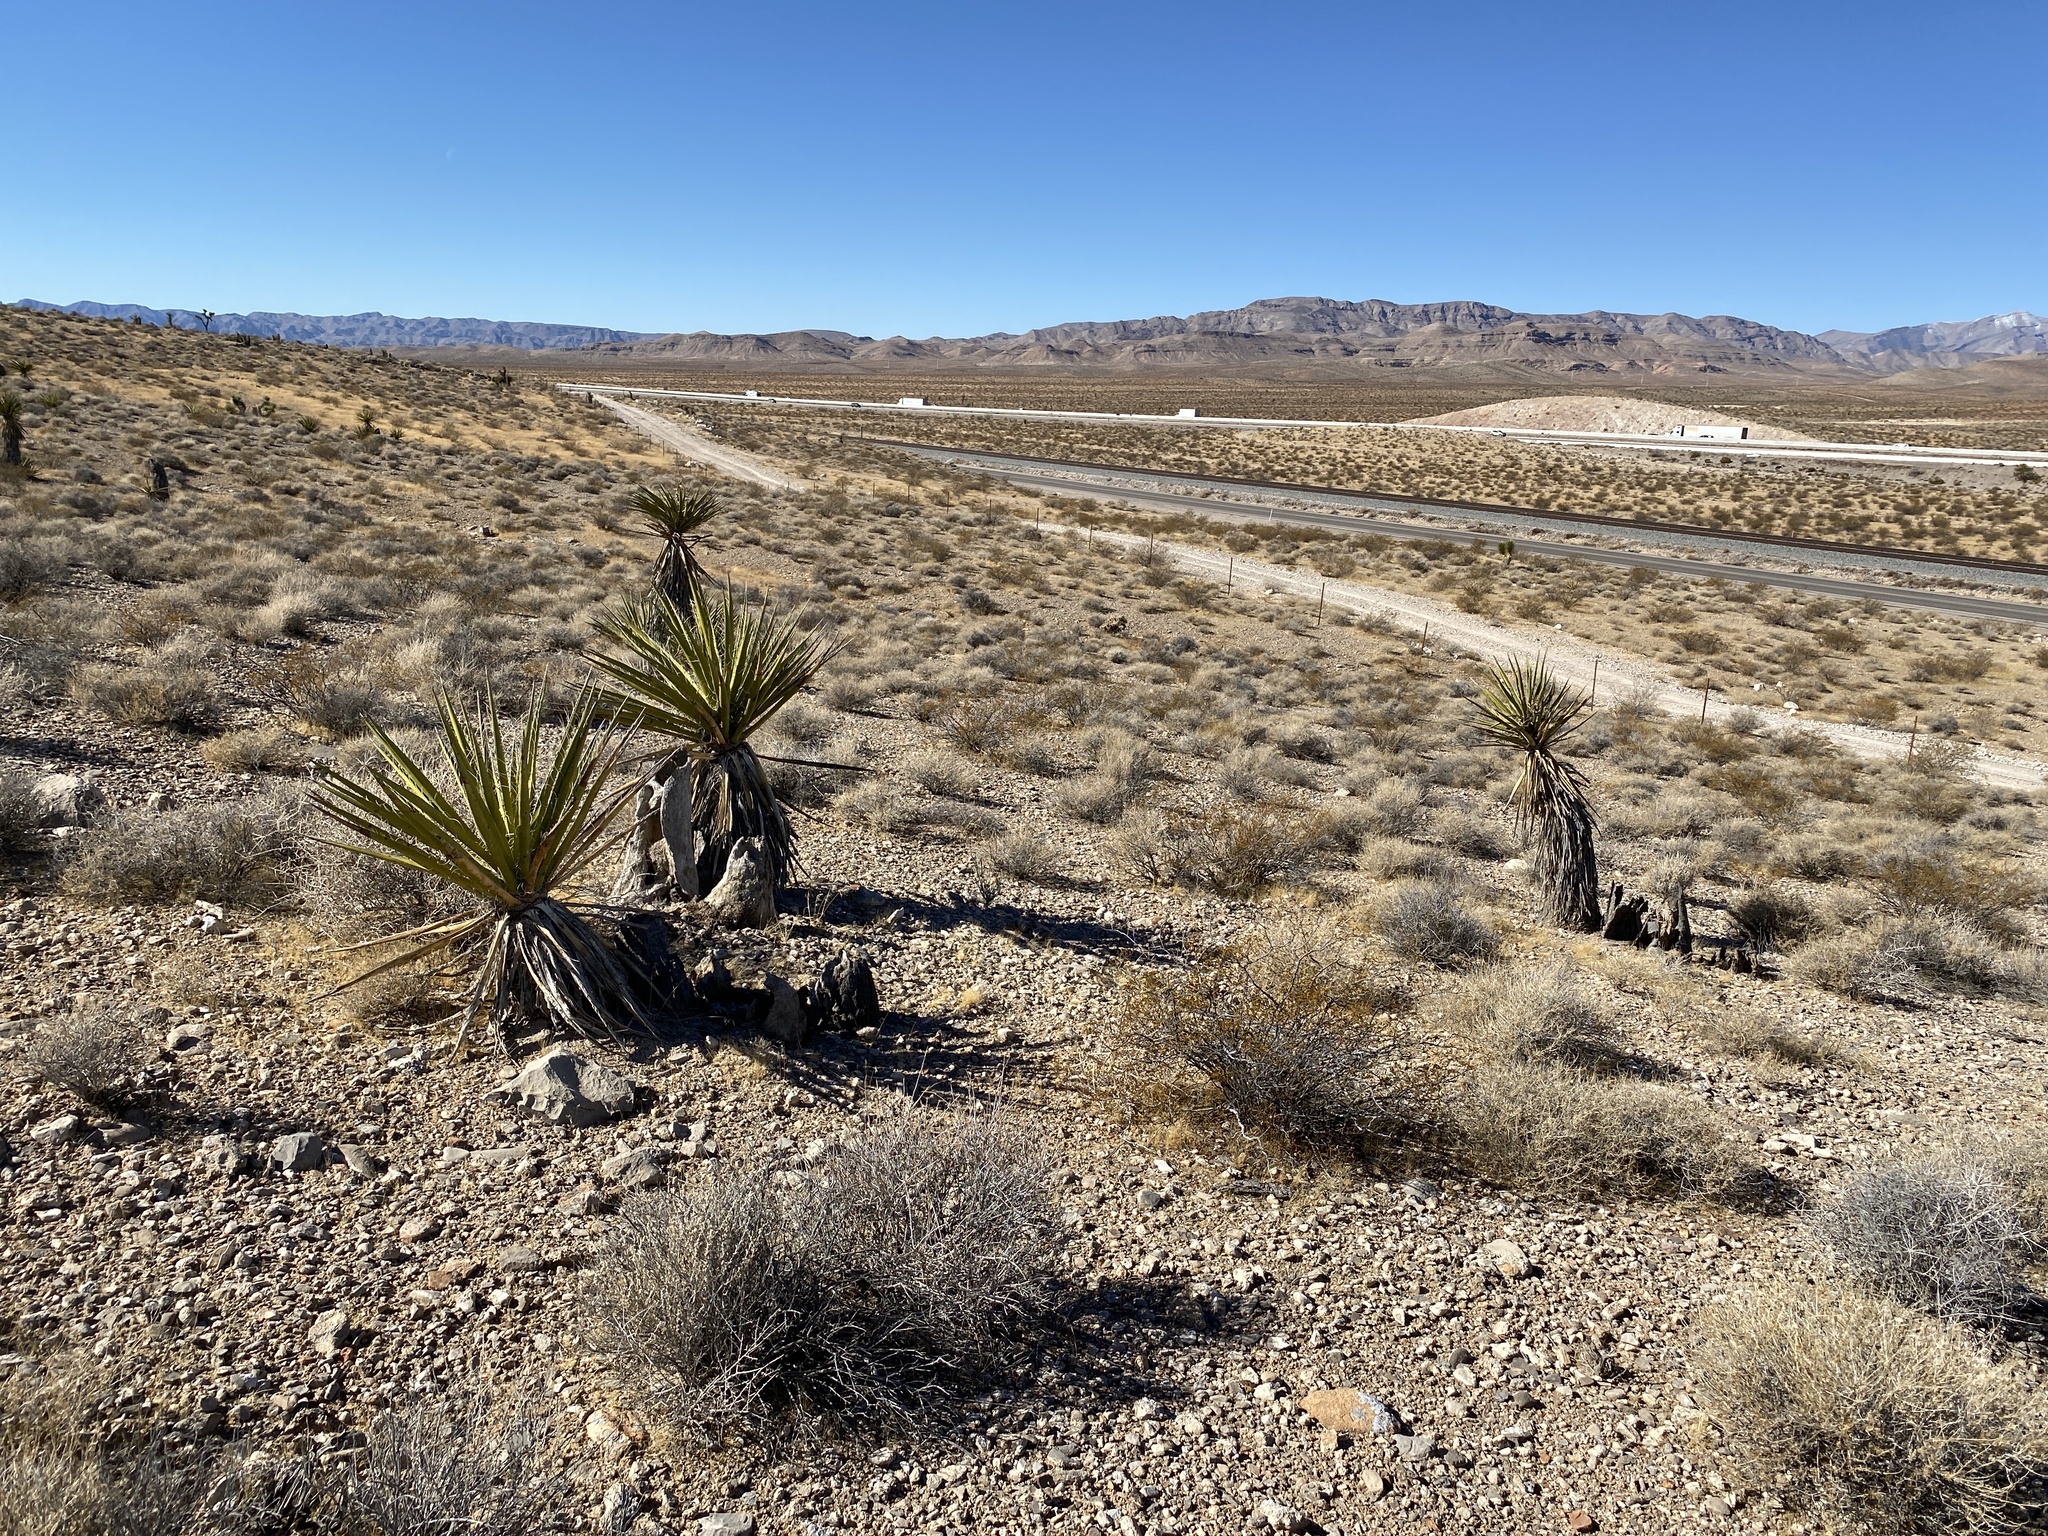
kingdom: Plantae
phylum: Tracheophyta
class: Liliopsida
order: Asparagales
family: Asparagaceae
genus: Yucca
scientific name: Yucca schidigera
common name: Mojave yucca
